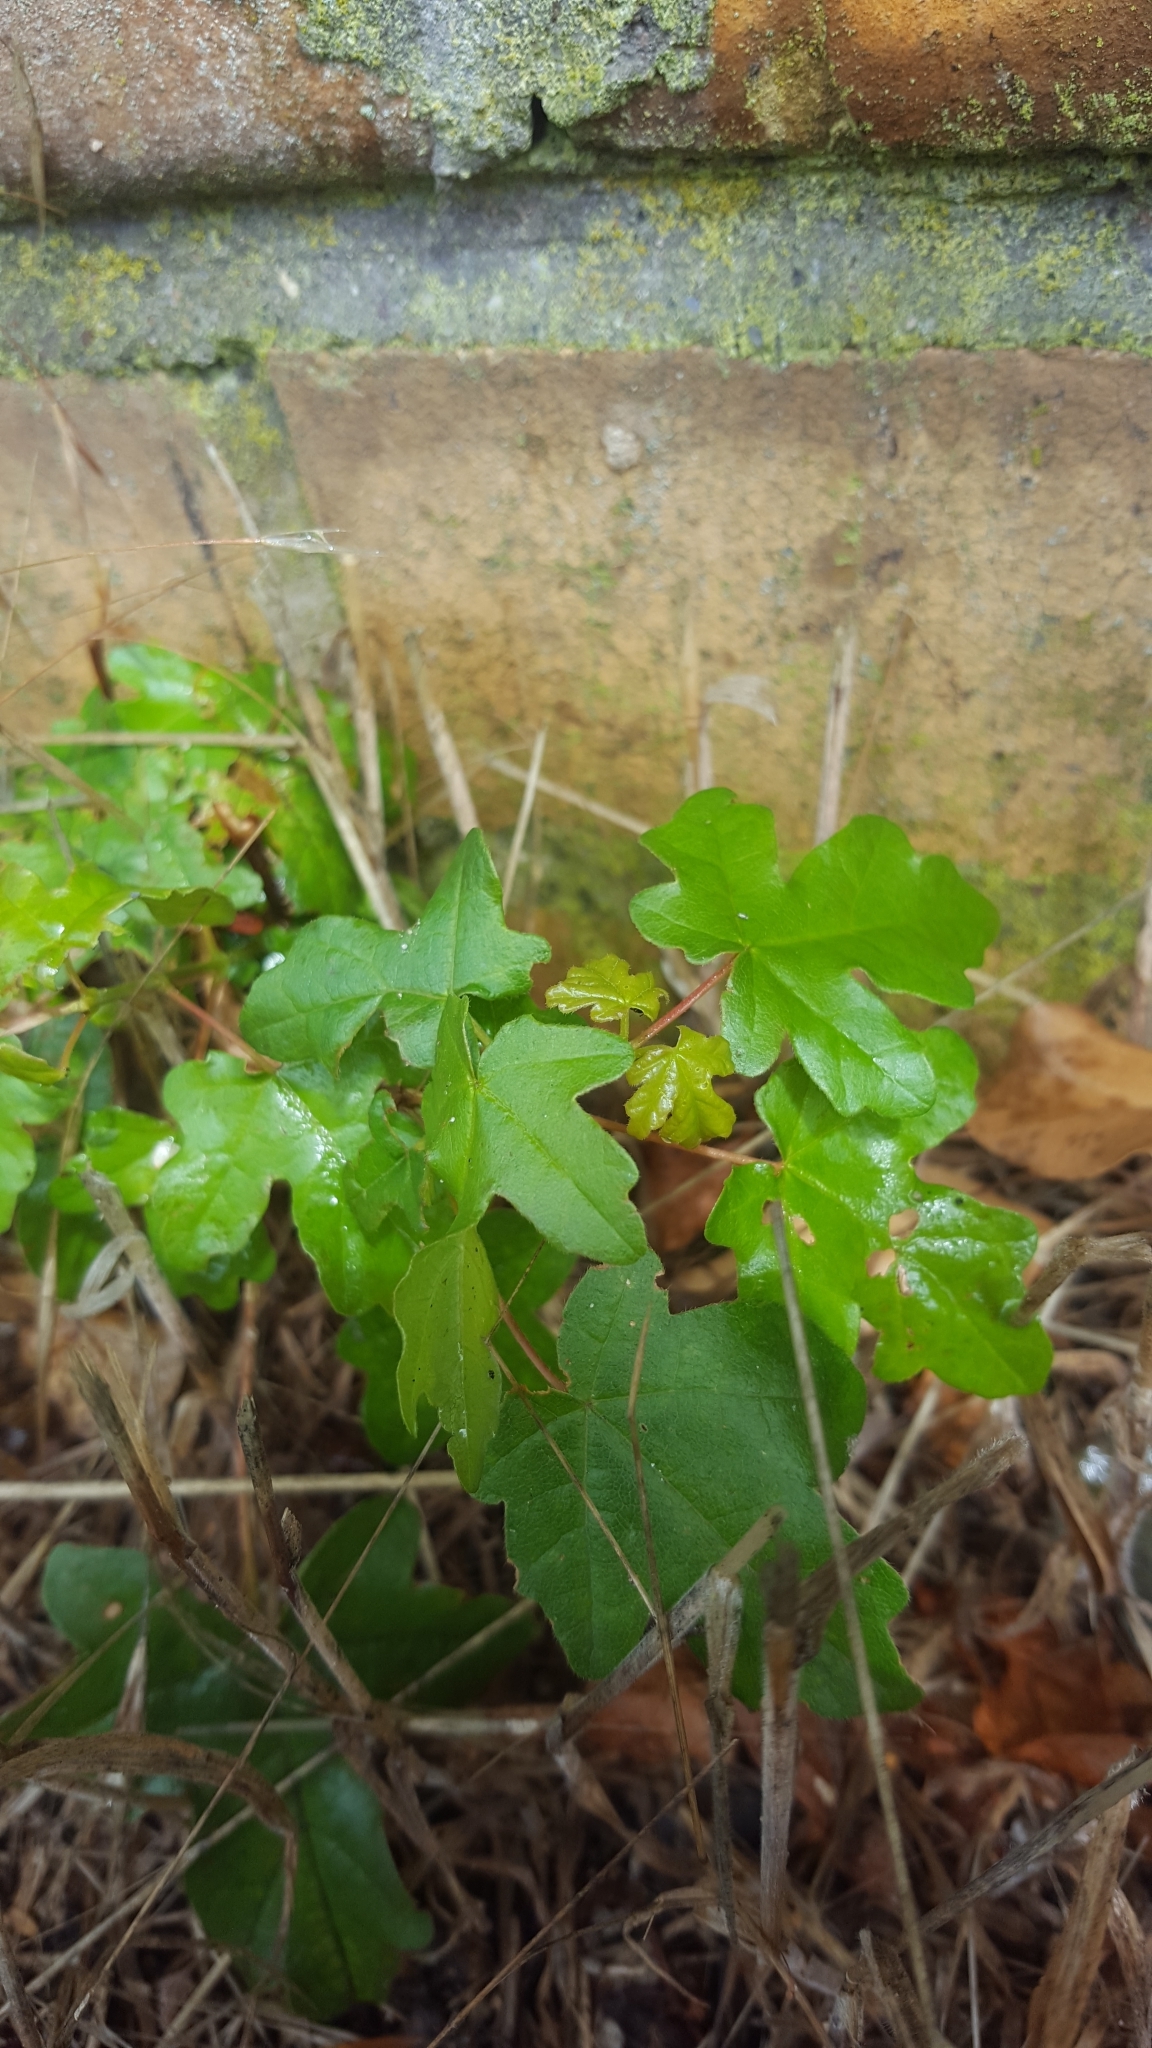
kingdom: Plantae
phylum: Tracheophyta
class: Magnoliopsida
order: Sapindales
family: Sapindaceae
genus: Acer
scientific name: Acer campestre
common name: Field maple
